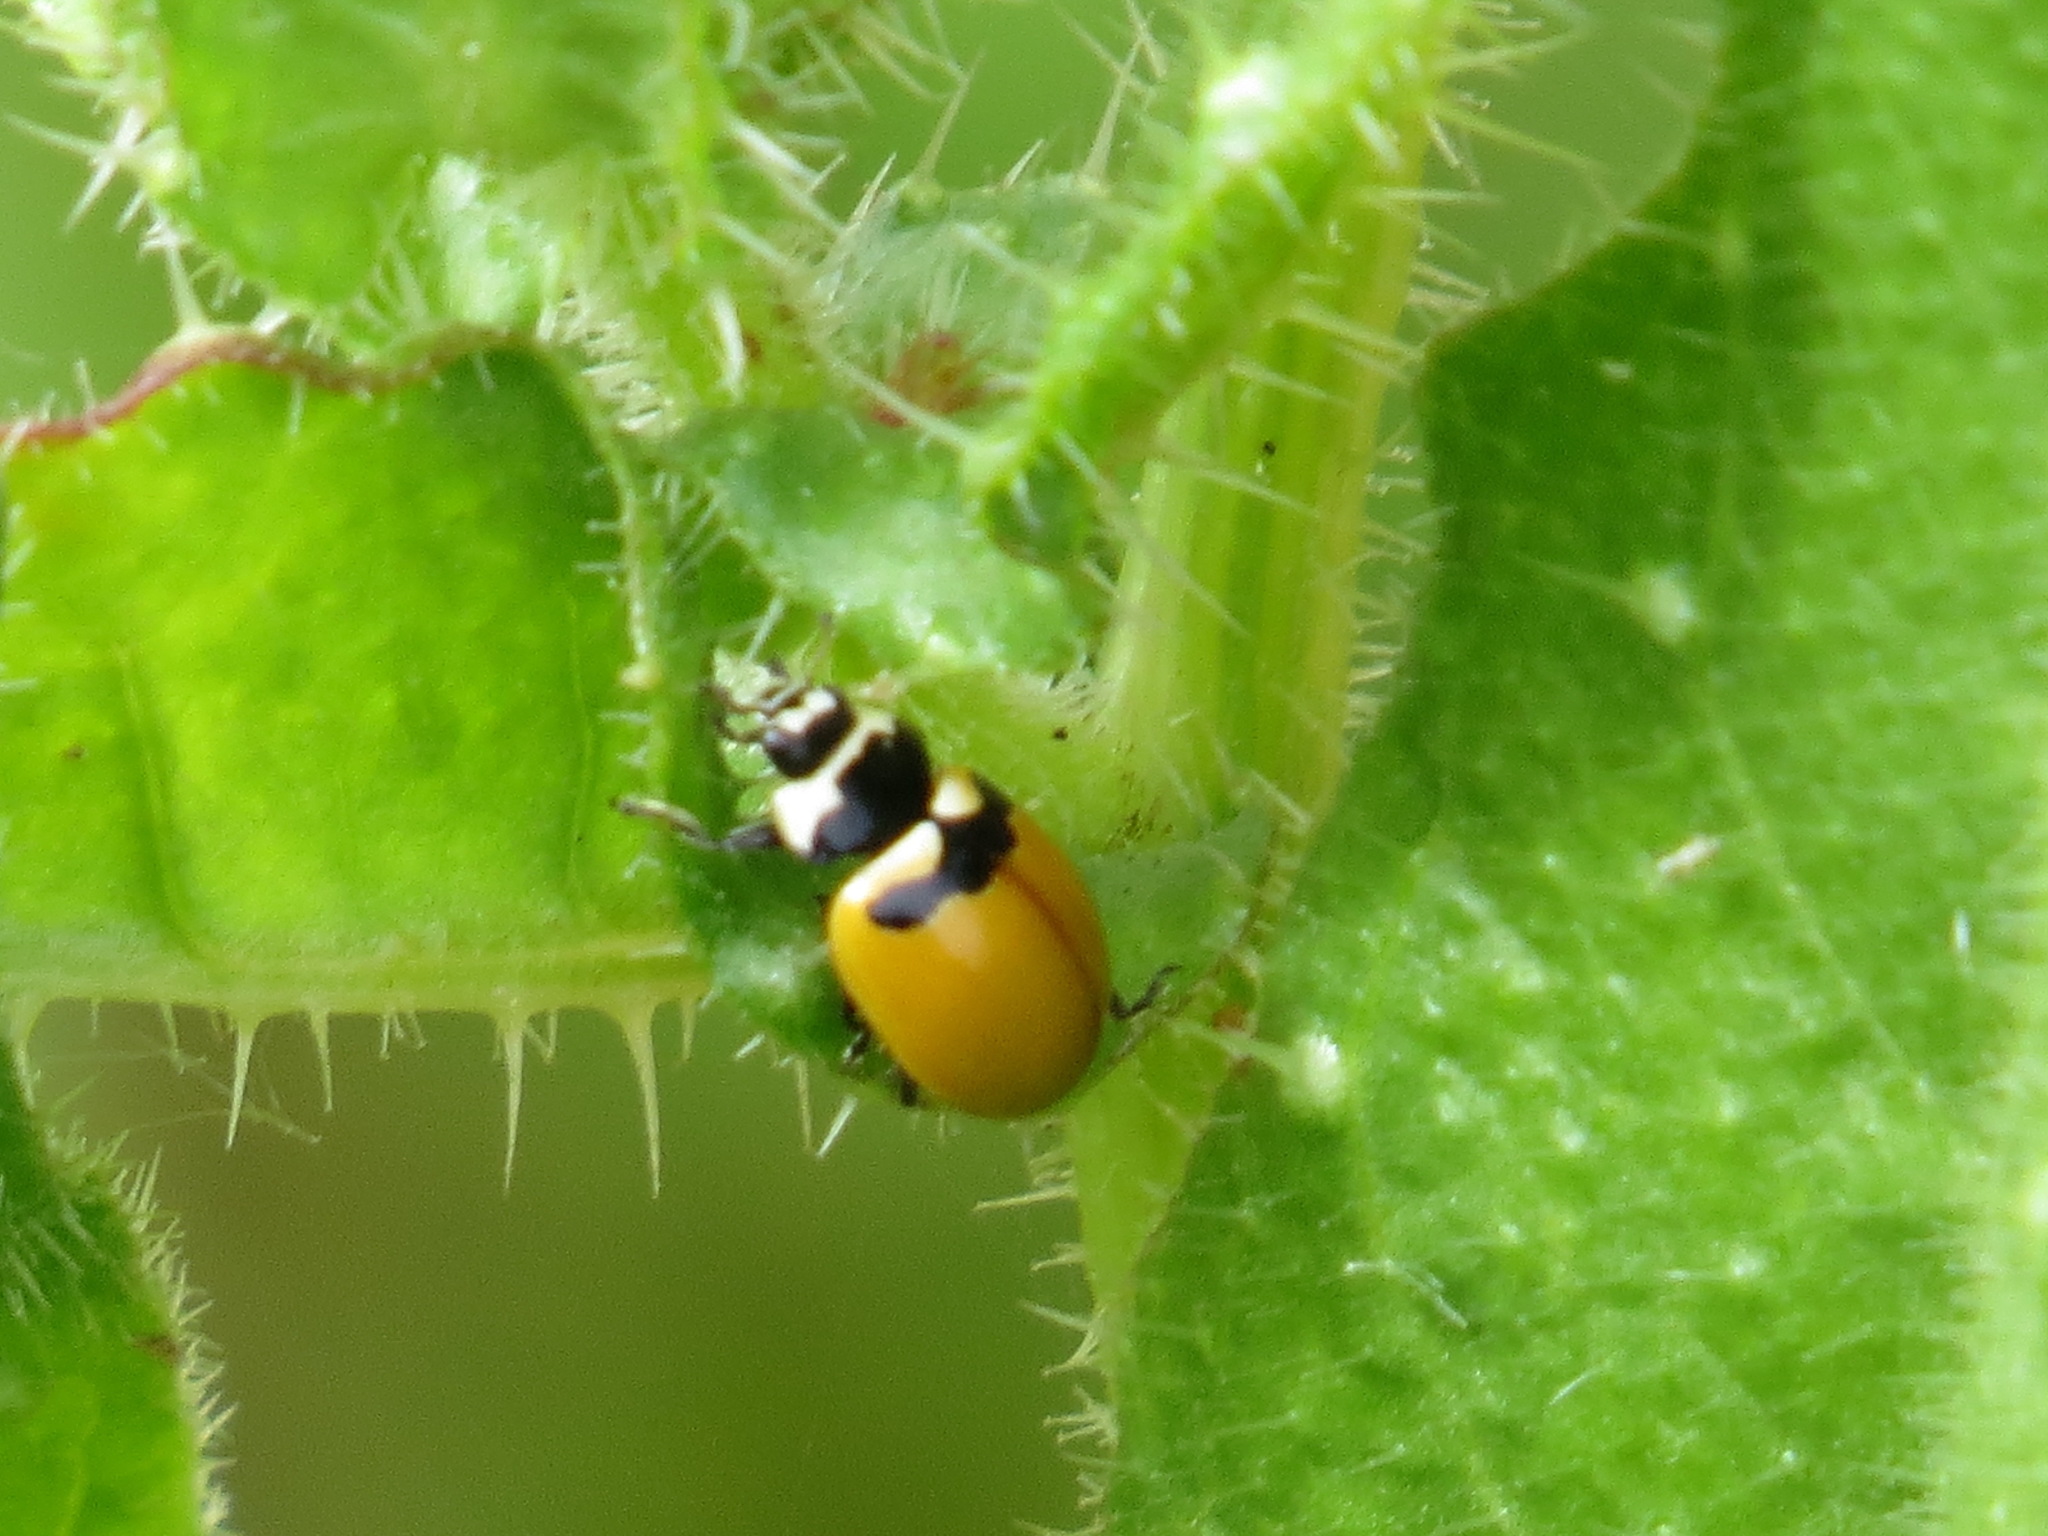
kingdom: Animalia
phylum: Arthropoda
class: Insecta
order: Coleoptera
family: Coccinellidae
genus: Coccinella
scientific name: Coccinella trifasciata
